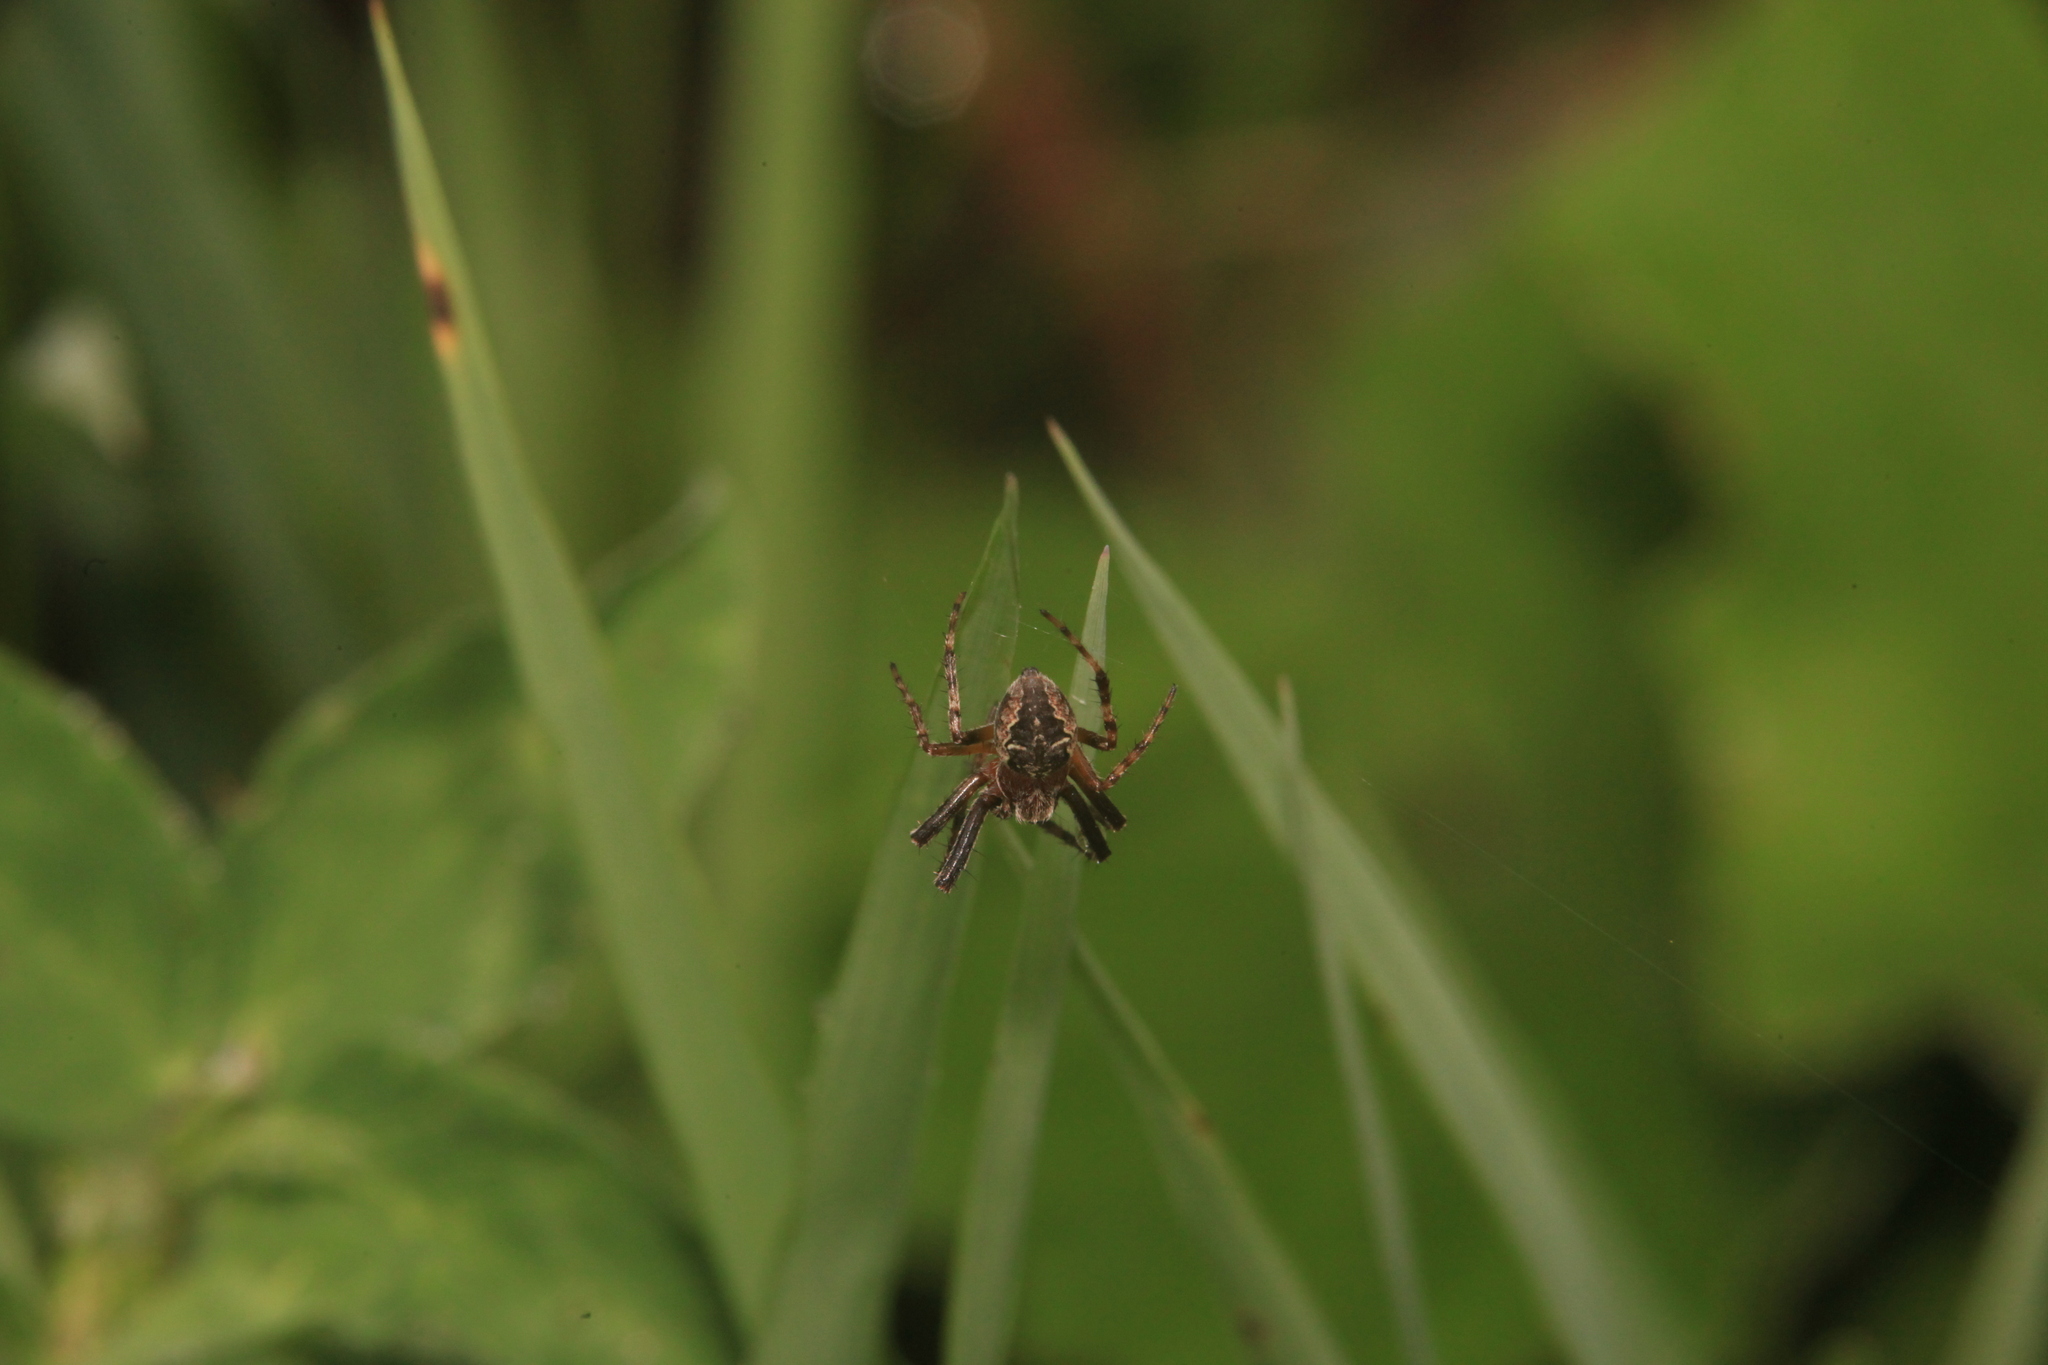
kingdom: Animalia
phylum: Arthropoda
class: Arachnida
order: Araneae
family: Araneidae
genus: Araneus
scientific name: Araneus diadematus
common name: Cross orbweaver
